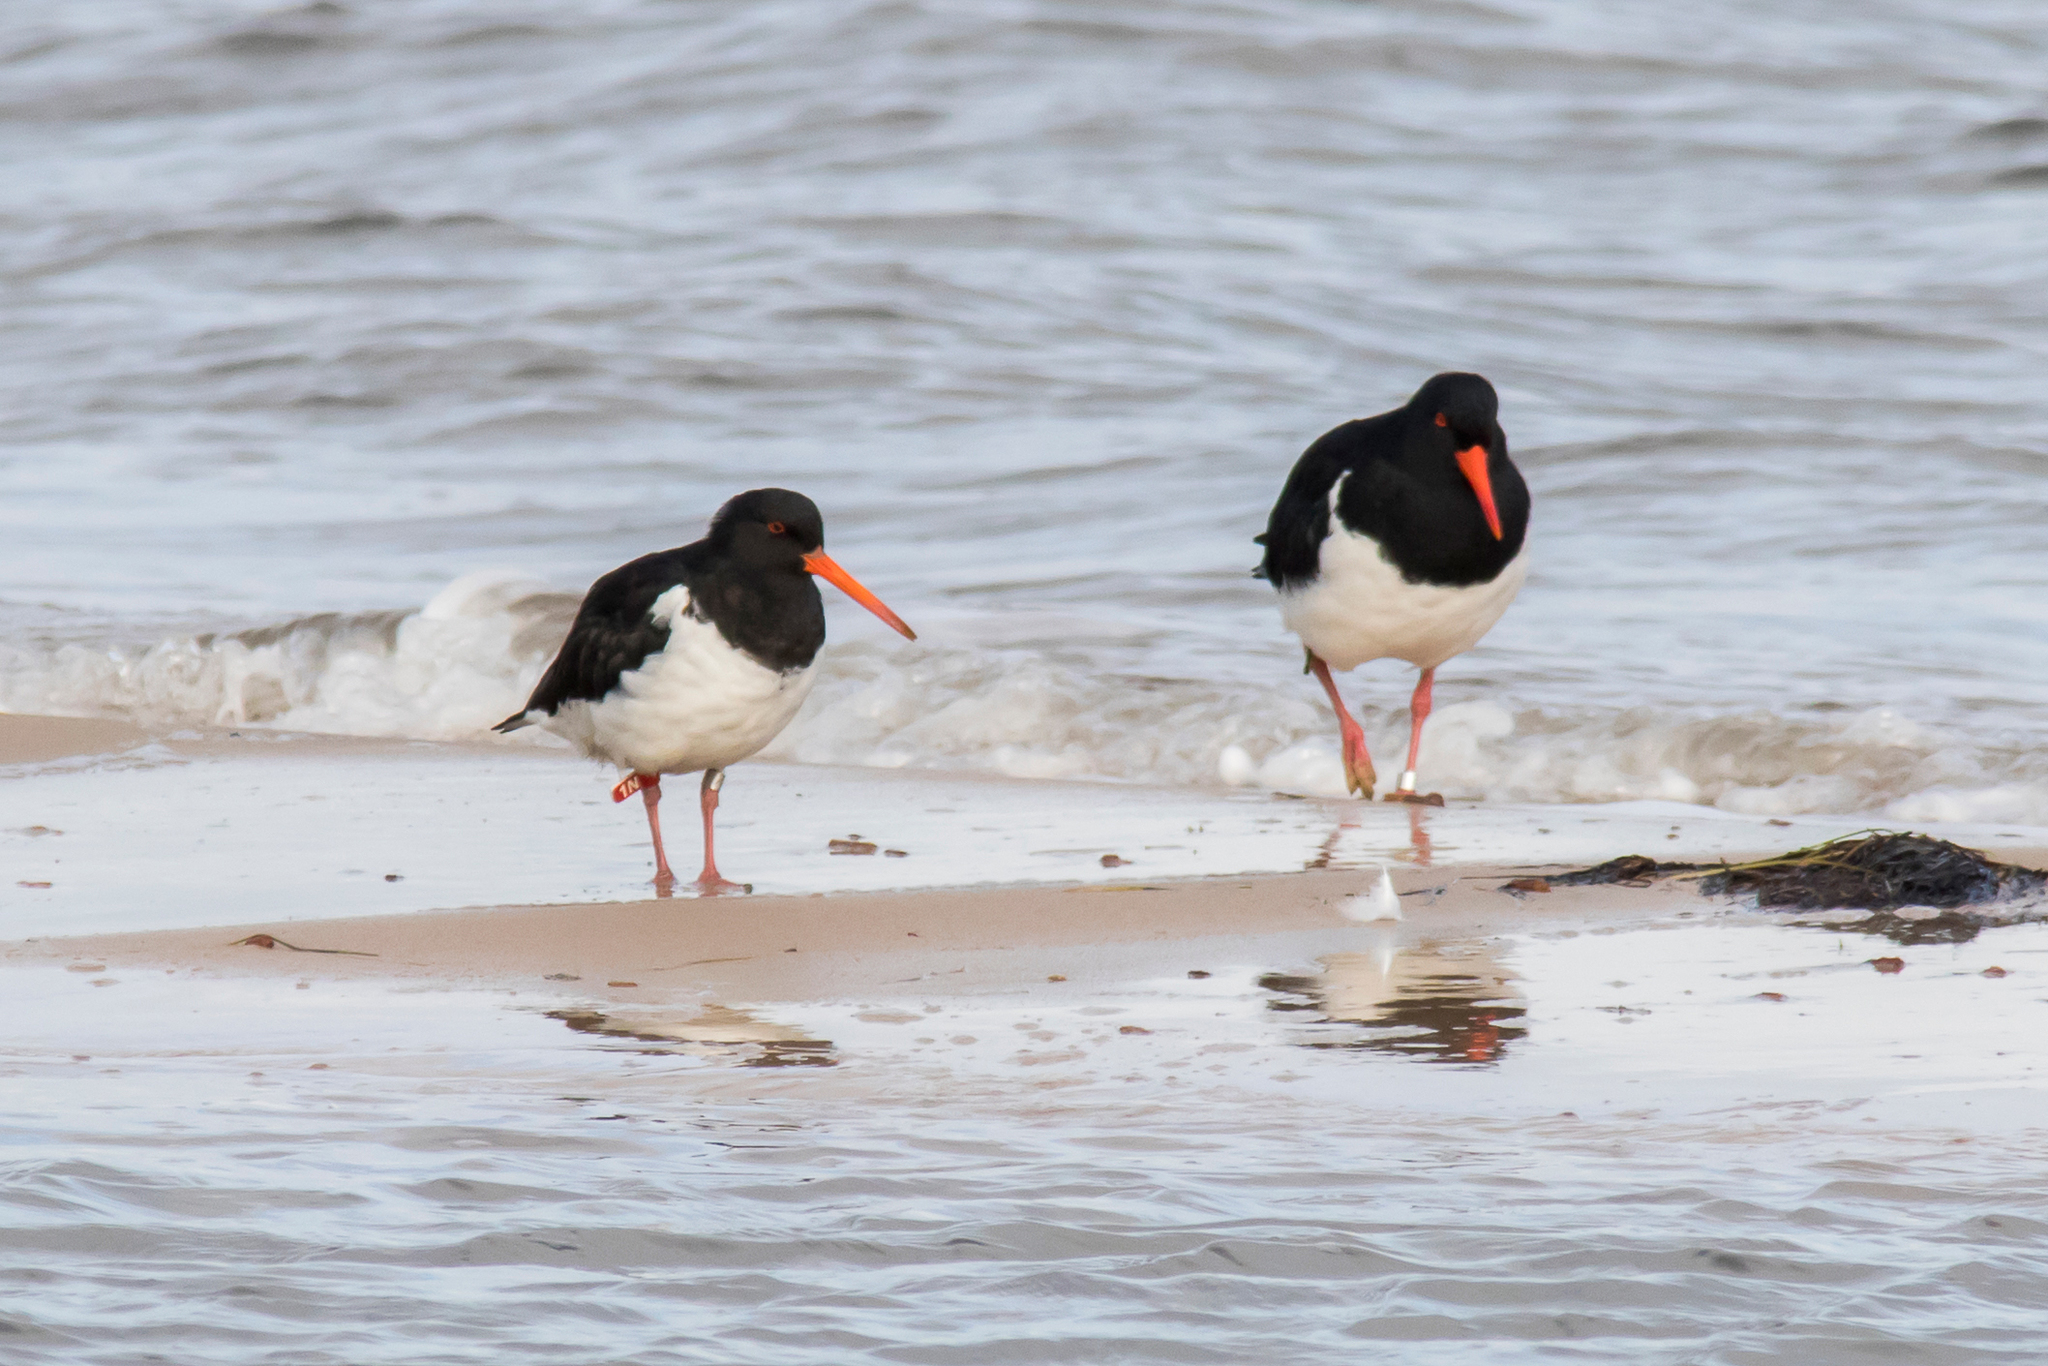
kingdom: Animalia
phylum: Chordata
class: Aves
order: Charadriiformes
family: Haematopodidae
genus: Haematopus
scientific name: Haematopus finschi
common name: South island oystercatcher
